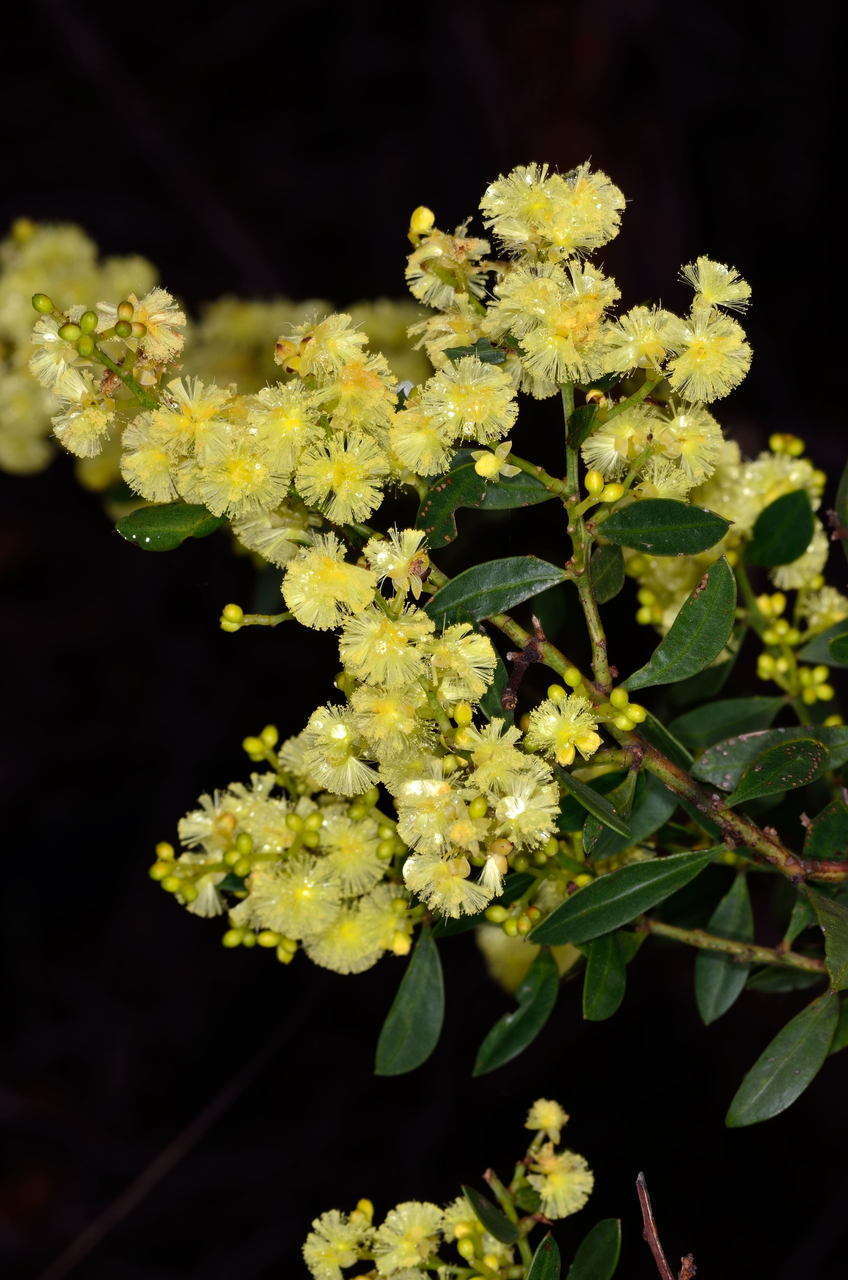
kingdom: Plantae
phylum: Tracheophyta
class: Magnoliopsida
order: Fabales
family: Fabaceae
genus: Acacia
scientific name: Acacia myrtifolia
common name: Myrtle wattle
